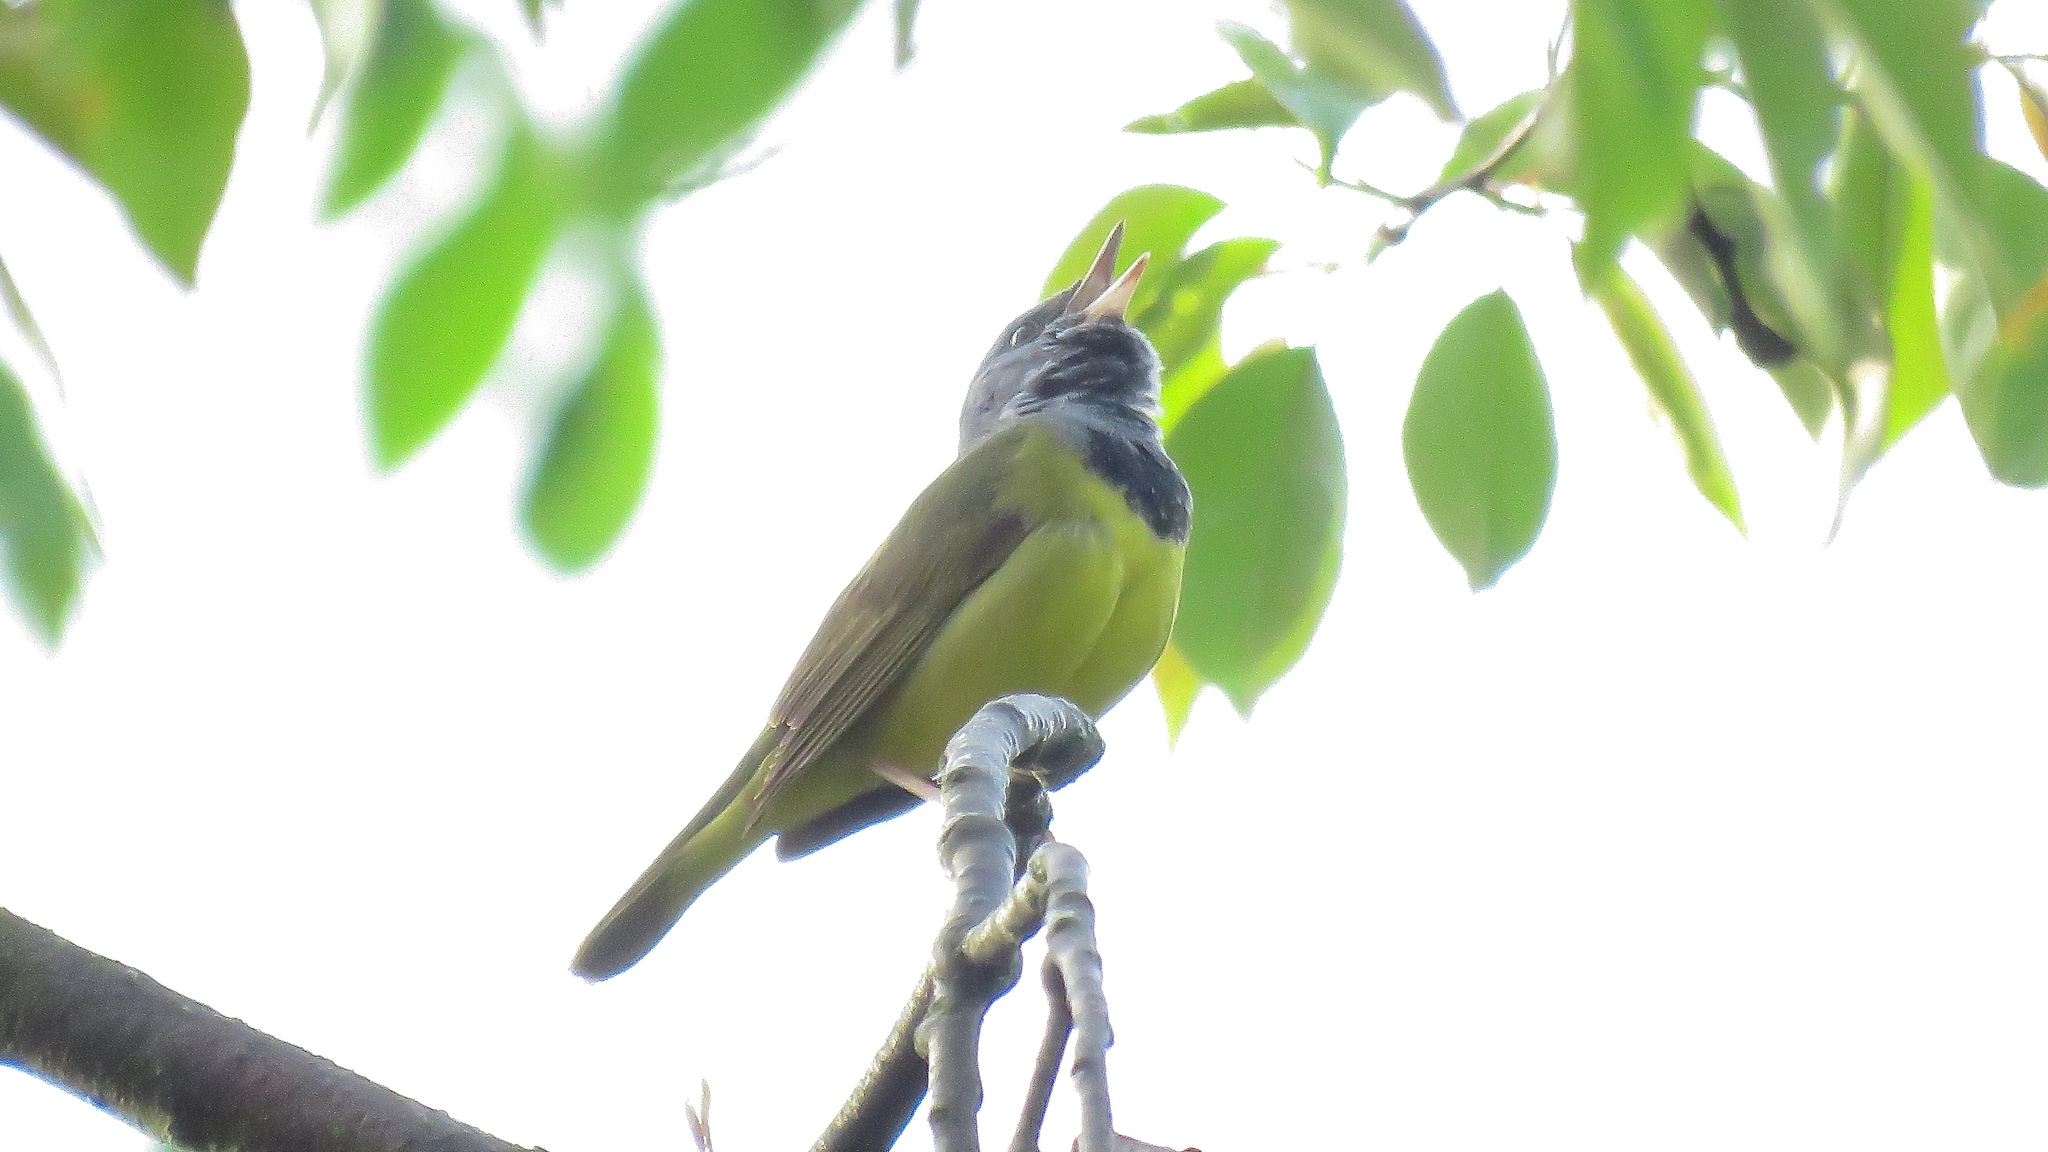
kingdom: Animalia
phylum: Chordata
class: Aves
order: Passeriformes
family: Parulidae
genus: Geothlypis
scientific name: Geothlypis philadelphia
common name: Mourning warbler
